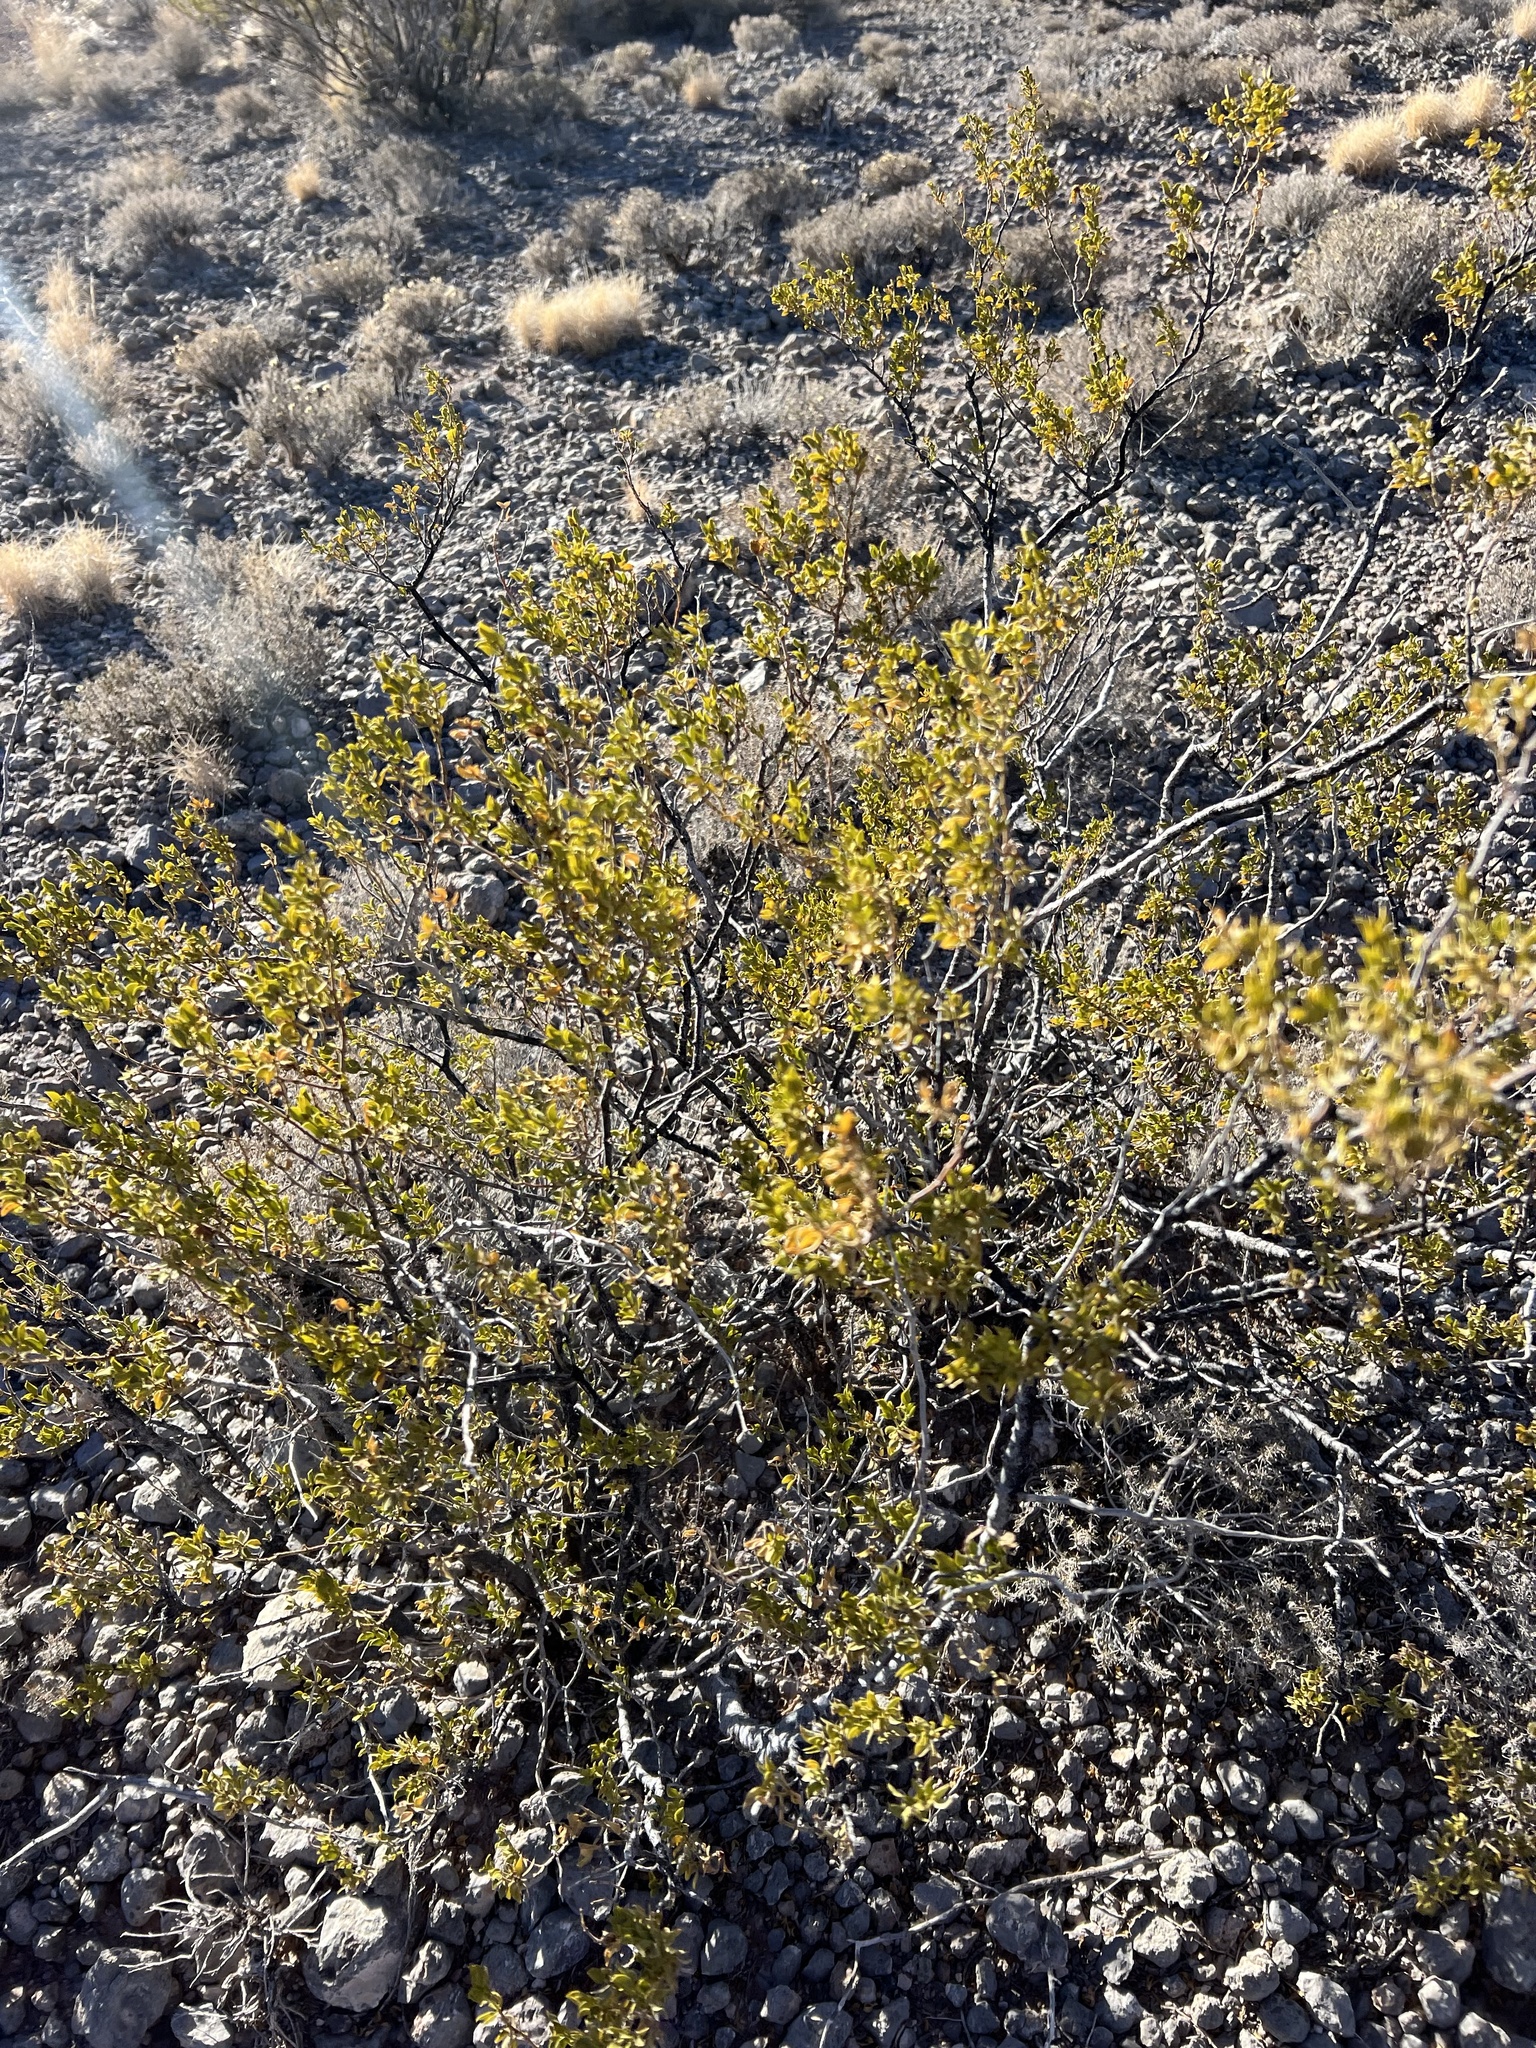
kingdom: Plantae
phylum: Tracheophyta
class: Magnoliopsida
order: Zygophyllales
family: Zygophyllaceae
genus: Larrea
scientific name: Larrea tridentata
